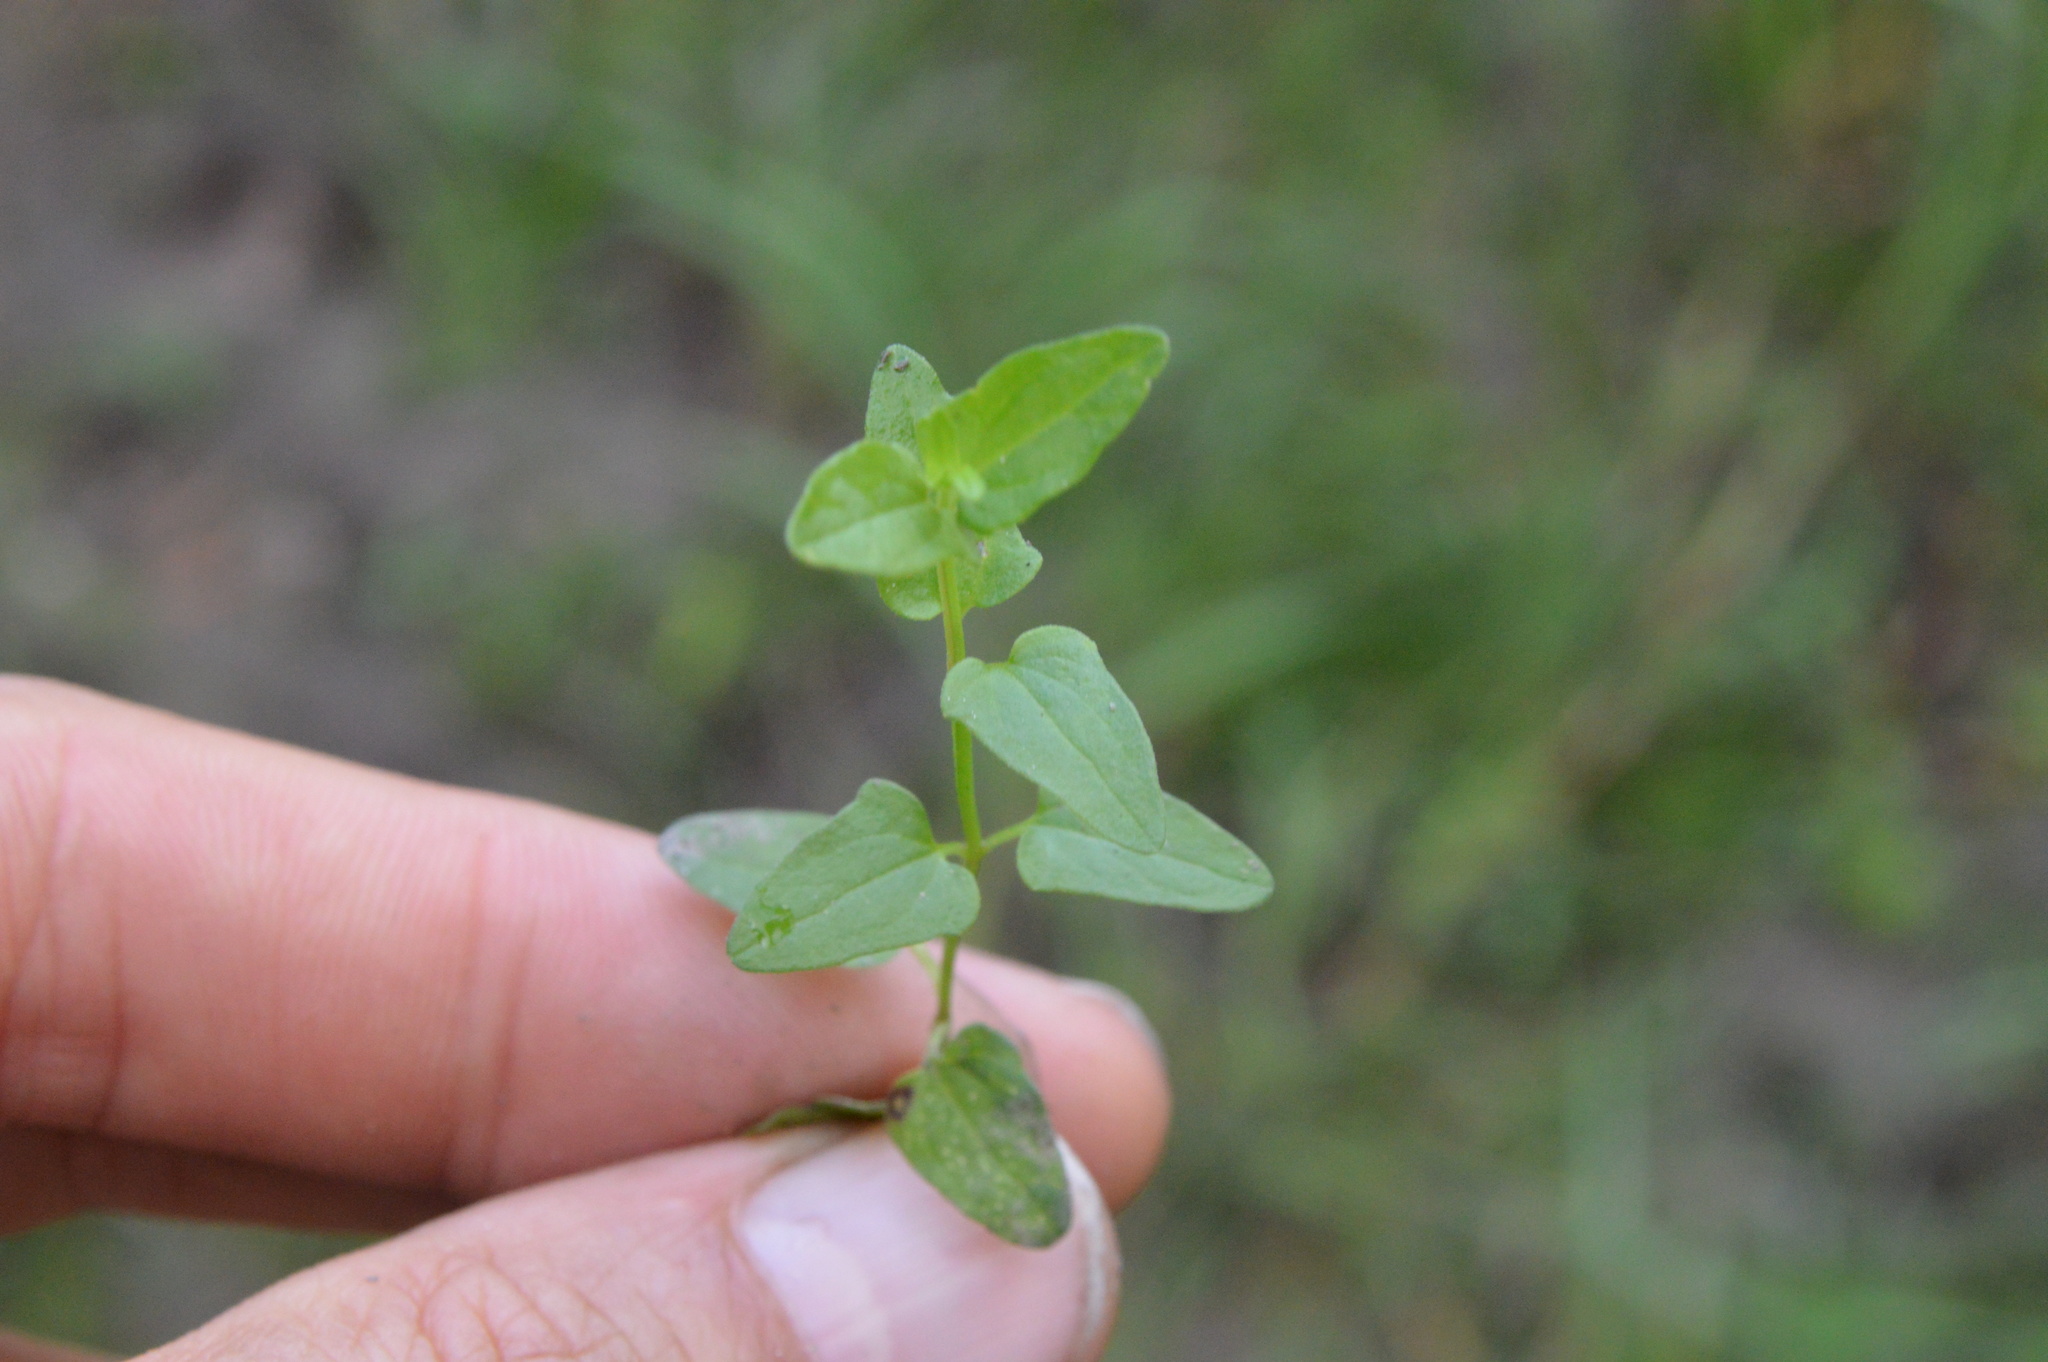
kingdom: Plantae
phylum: Tracheophyta
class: Magnoliopsida
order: Lamiales
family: Lamiaceae
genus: Scutellaria
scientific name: Scutellaria racemosa
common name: South american skullcap
